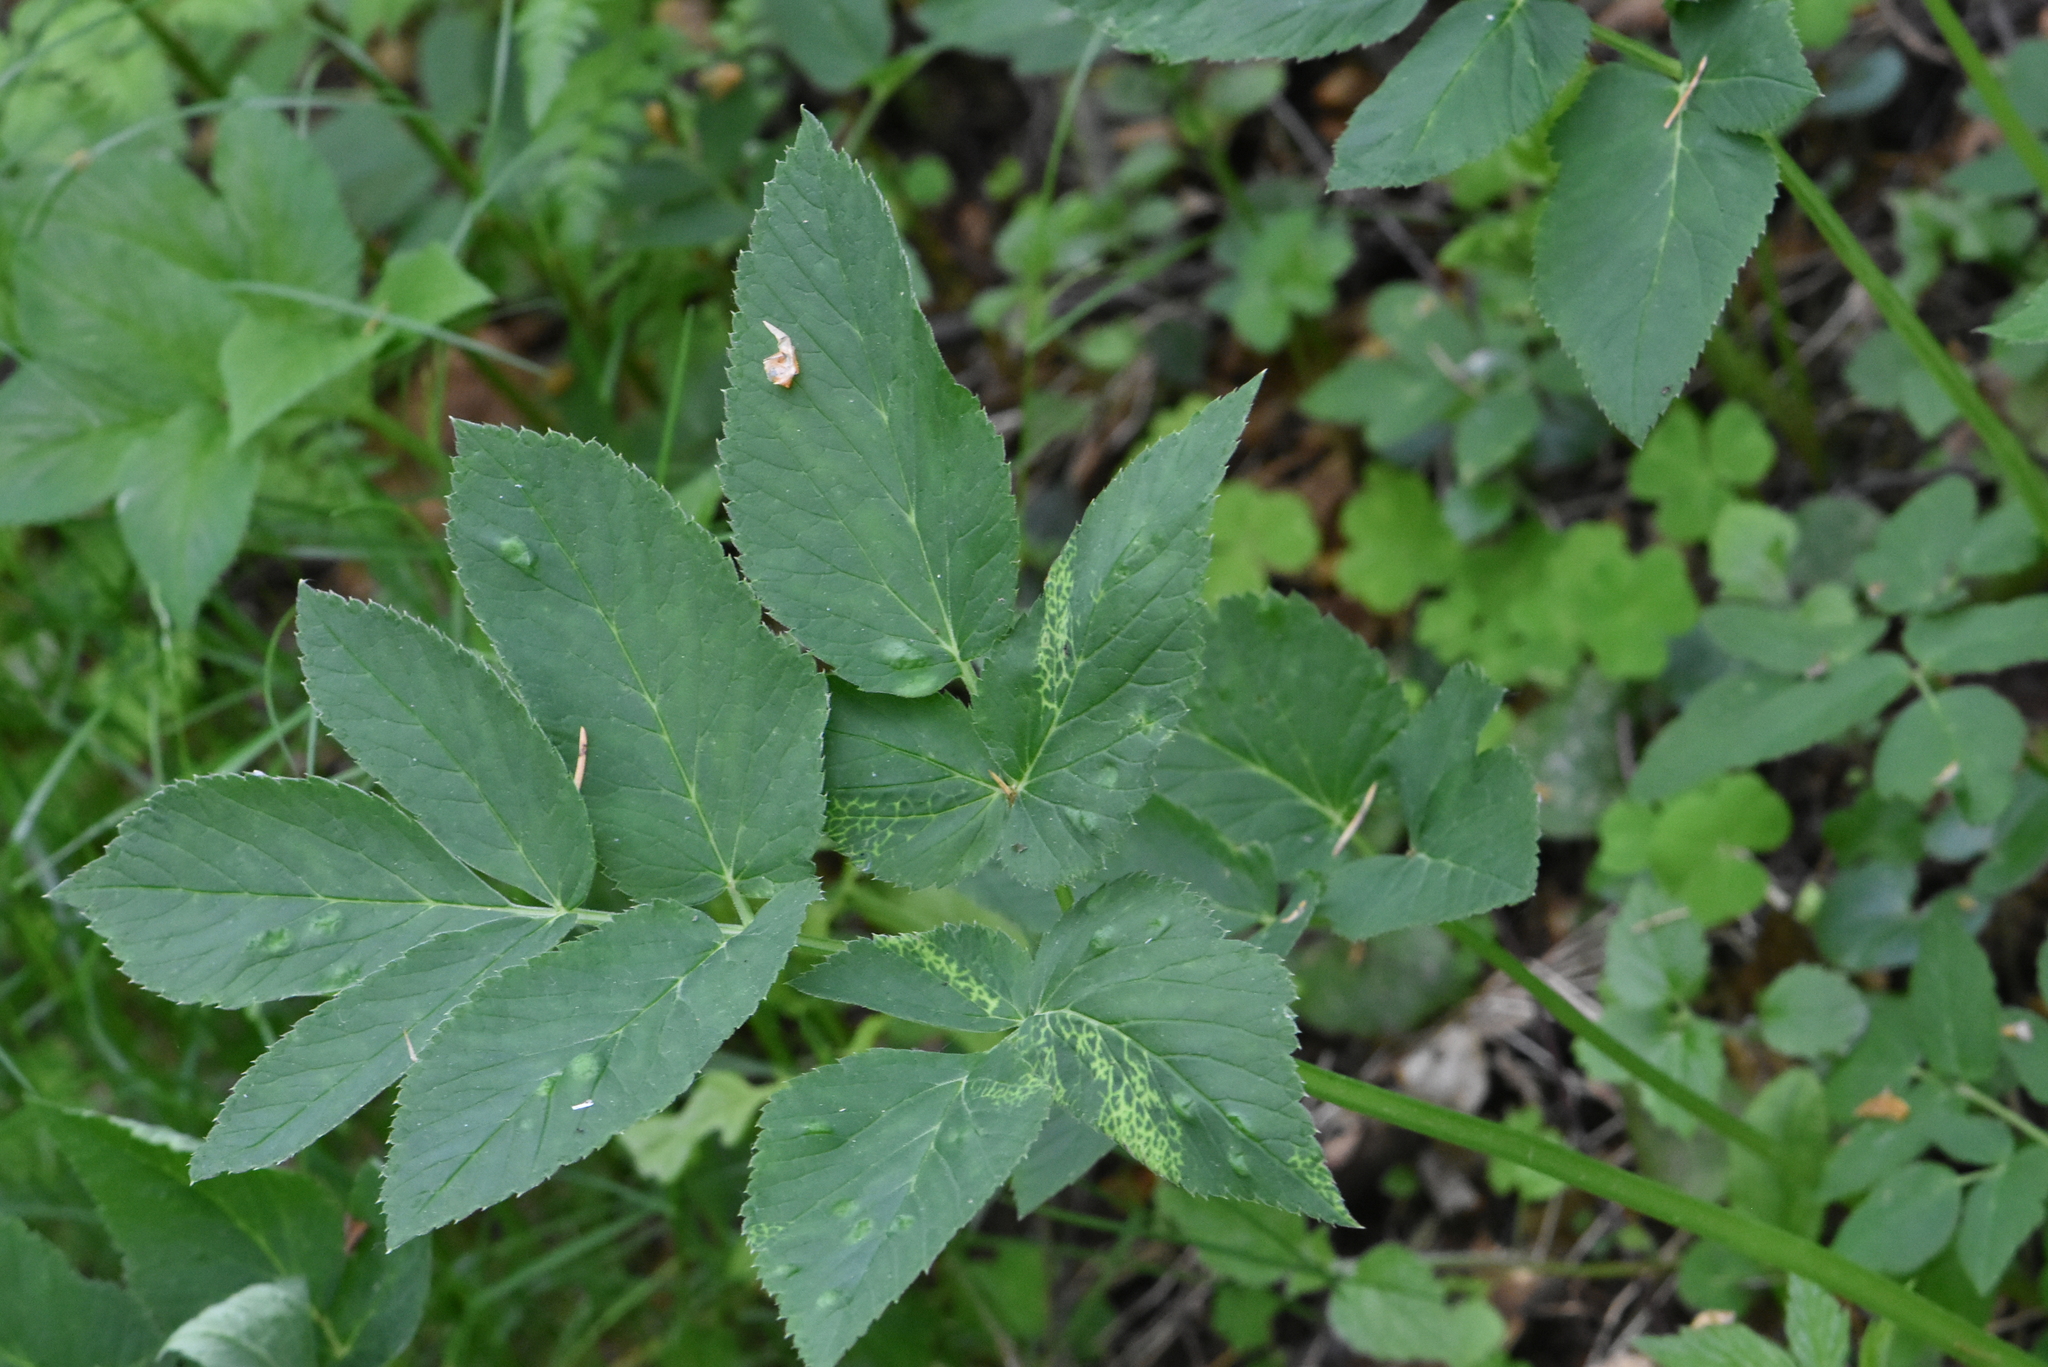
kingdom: Plantae
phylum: Tracheophyta
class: Magnoliopsida
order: Apiales
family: Apiaceae
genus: Aegopodium
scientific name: Aegopodium podagraria
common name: Ground-elder
